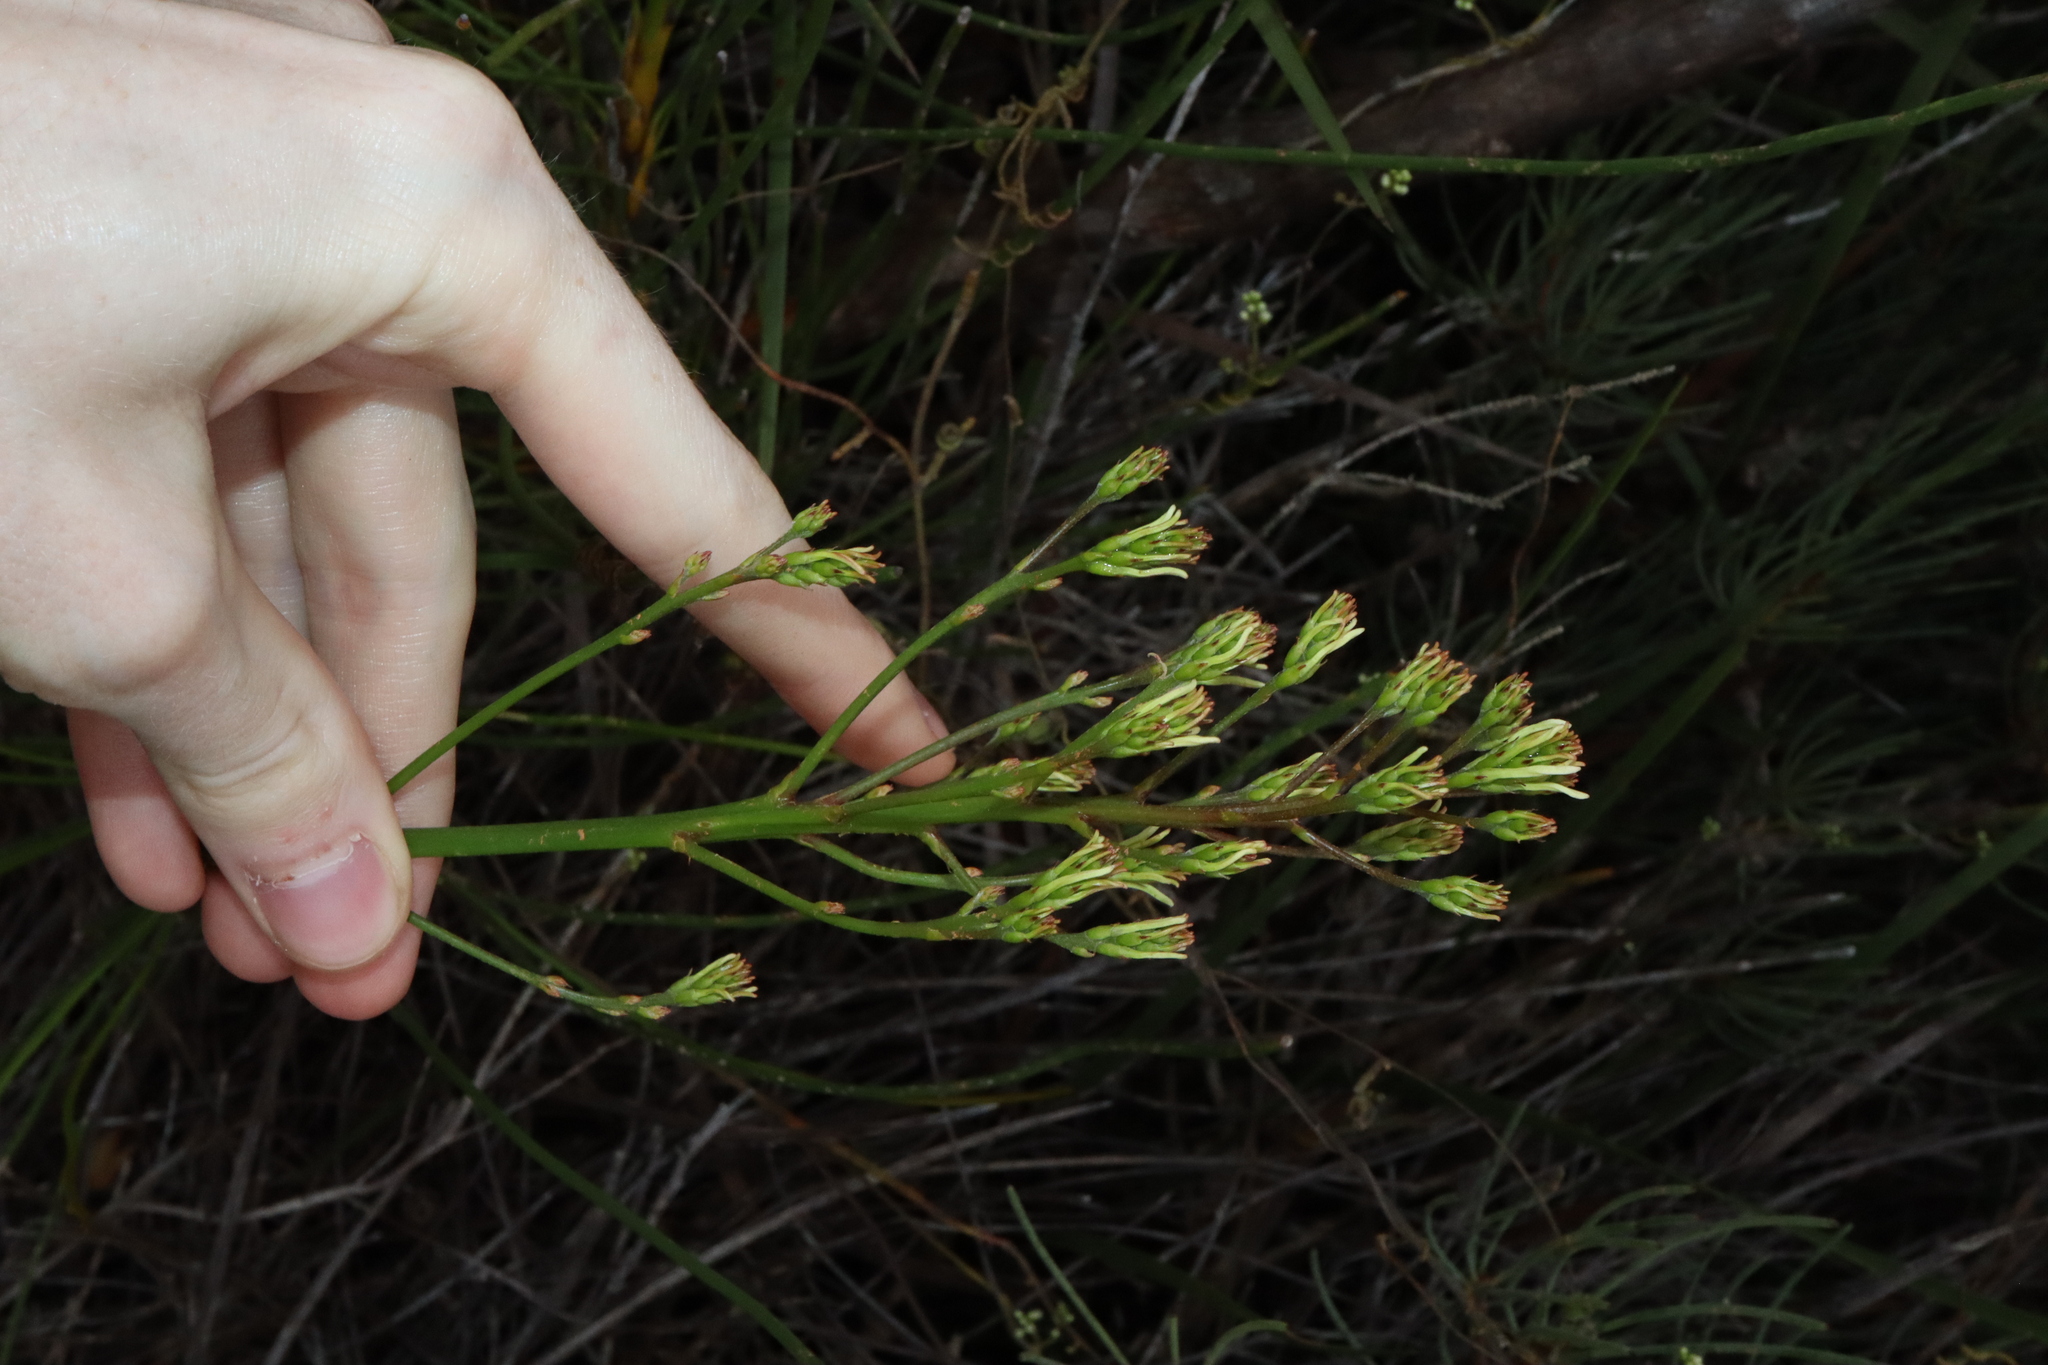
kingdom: Plantae
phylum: Tracheophyta
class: Magnoliopsida
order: Proteales
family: Proteaceae
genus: Conospermum
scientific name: Conospermum teretifolium
